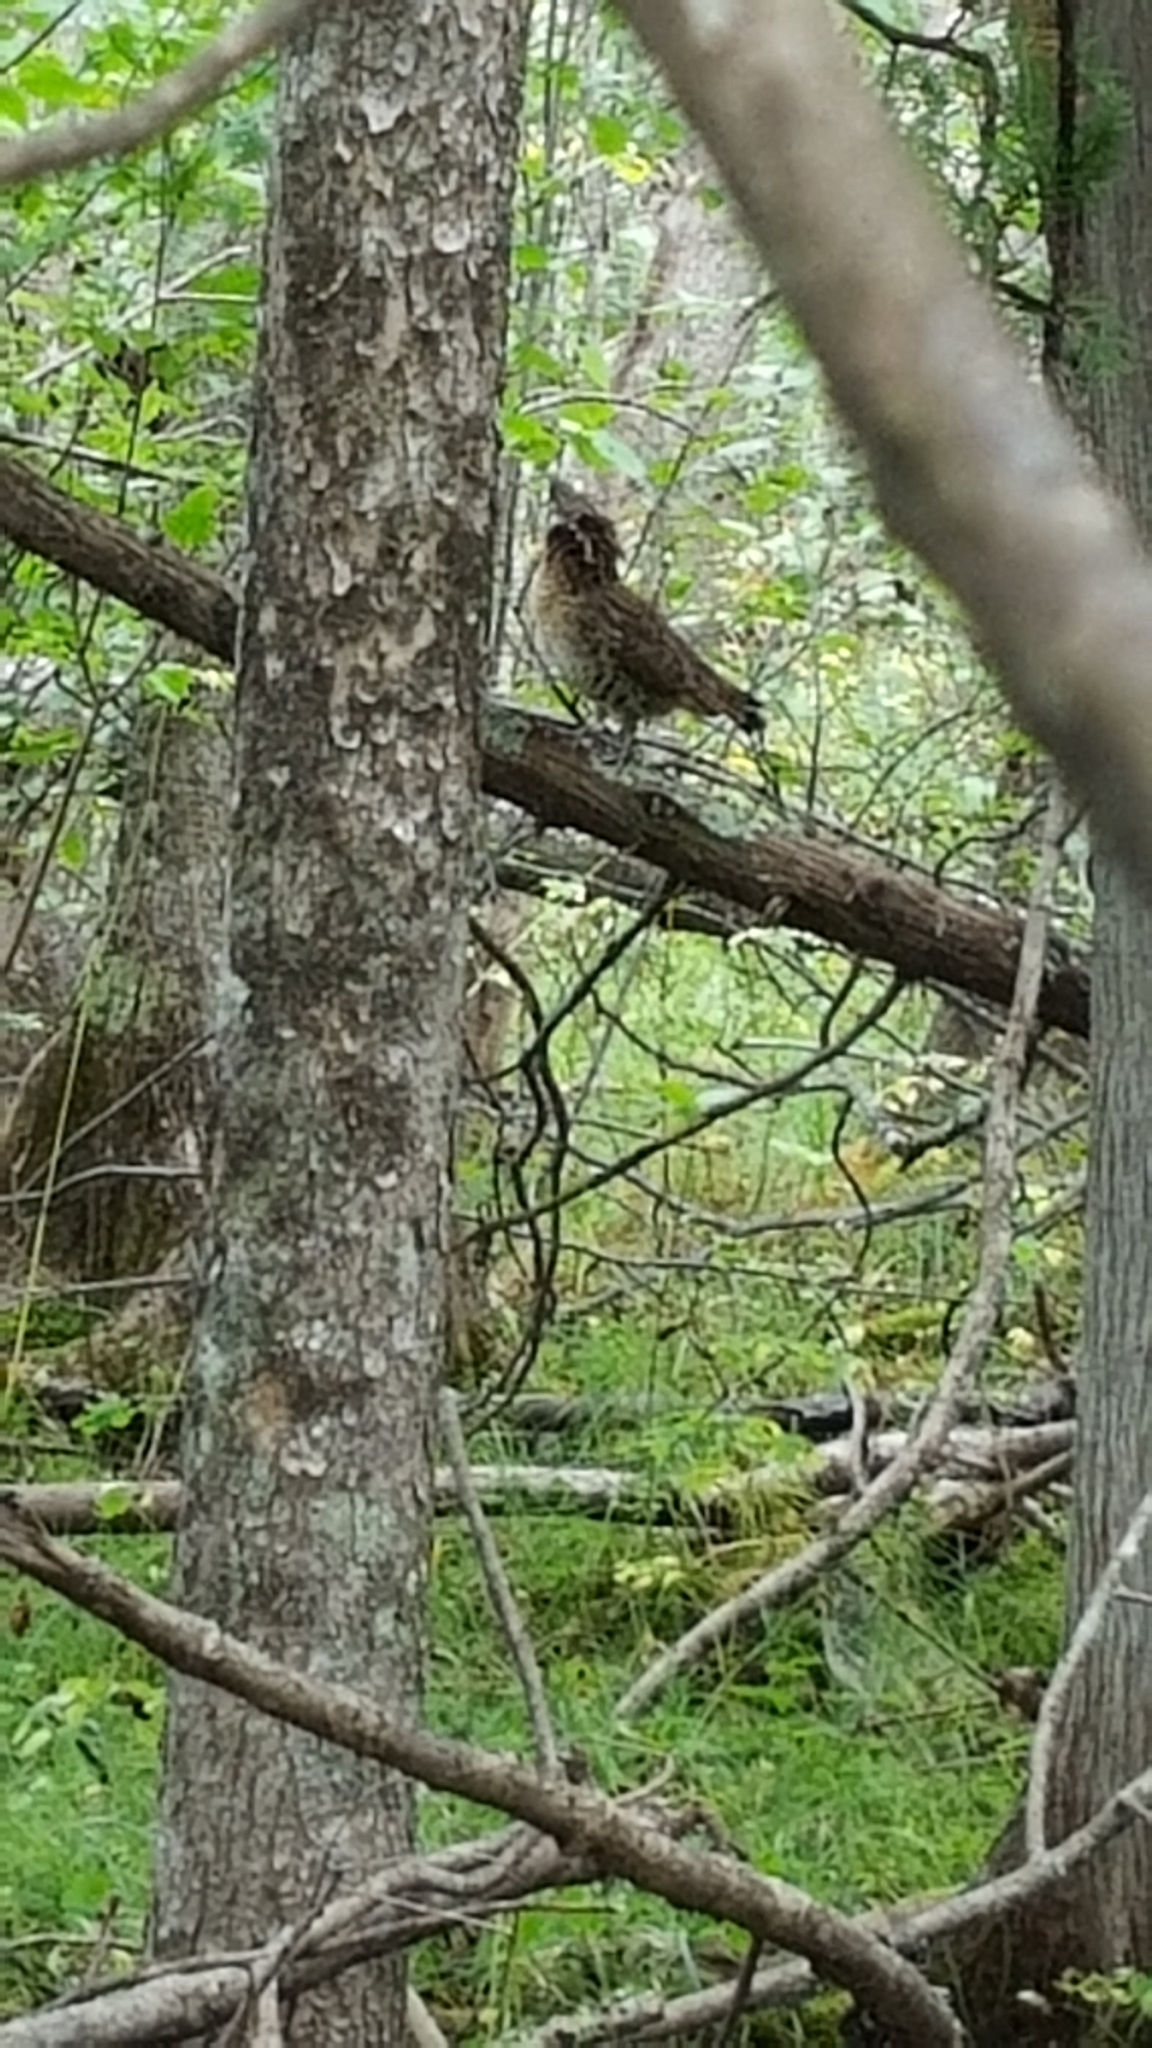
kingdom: Animalia
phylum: Chordata
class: Aves
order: Galliformes
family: Phasianidae
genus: Bonasa
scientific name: Bonasa umbellus
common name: Ruffed grouse
